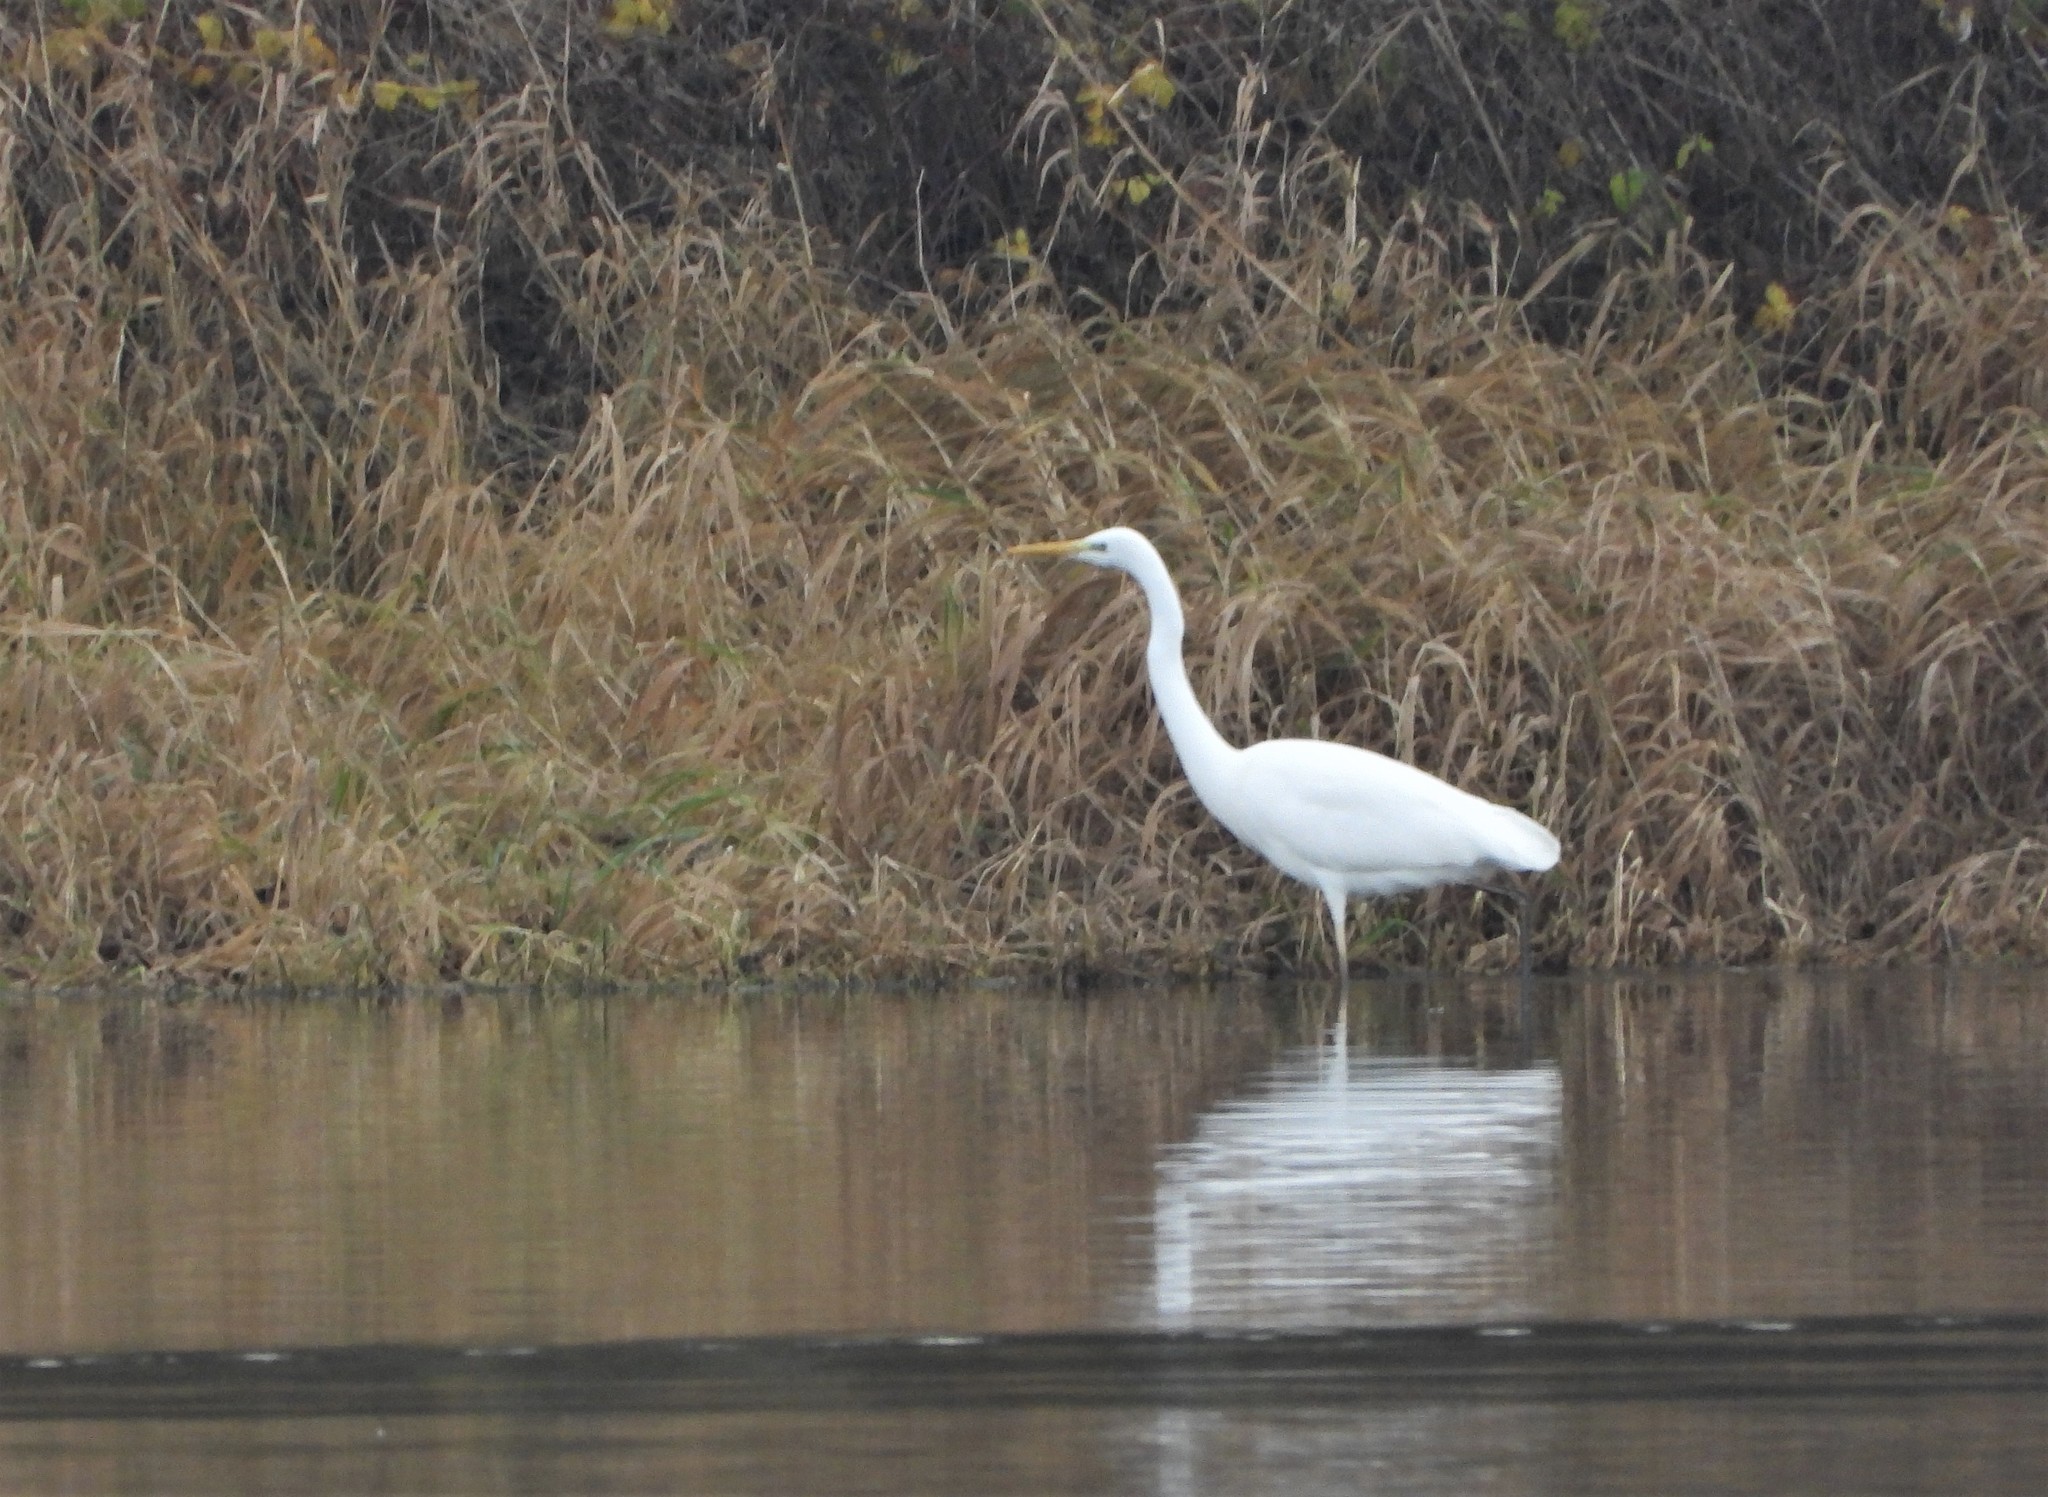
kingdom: Animalia
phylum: Chordata
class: Aves
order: Pelecaniformes
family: Ardeidae
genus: Ardea
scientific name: Ardea alba
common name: Great egret
